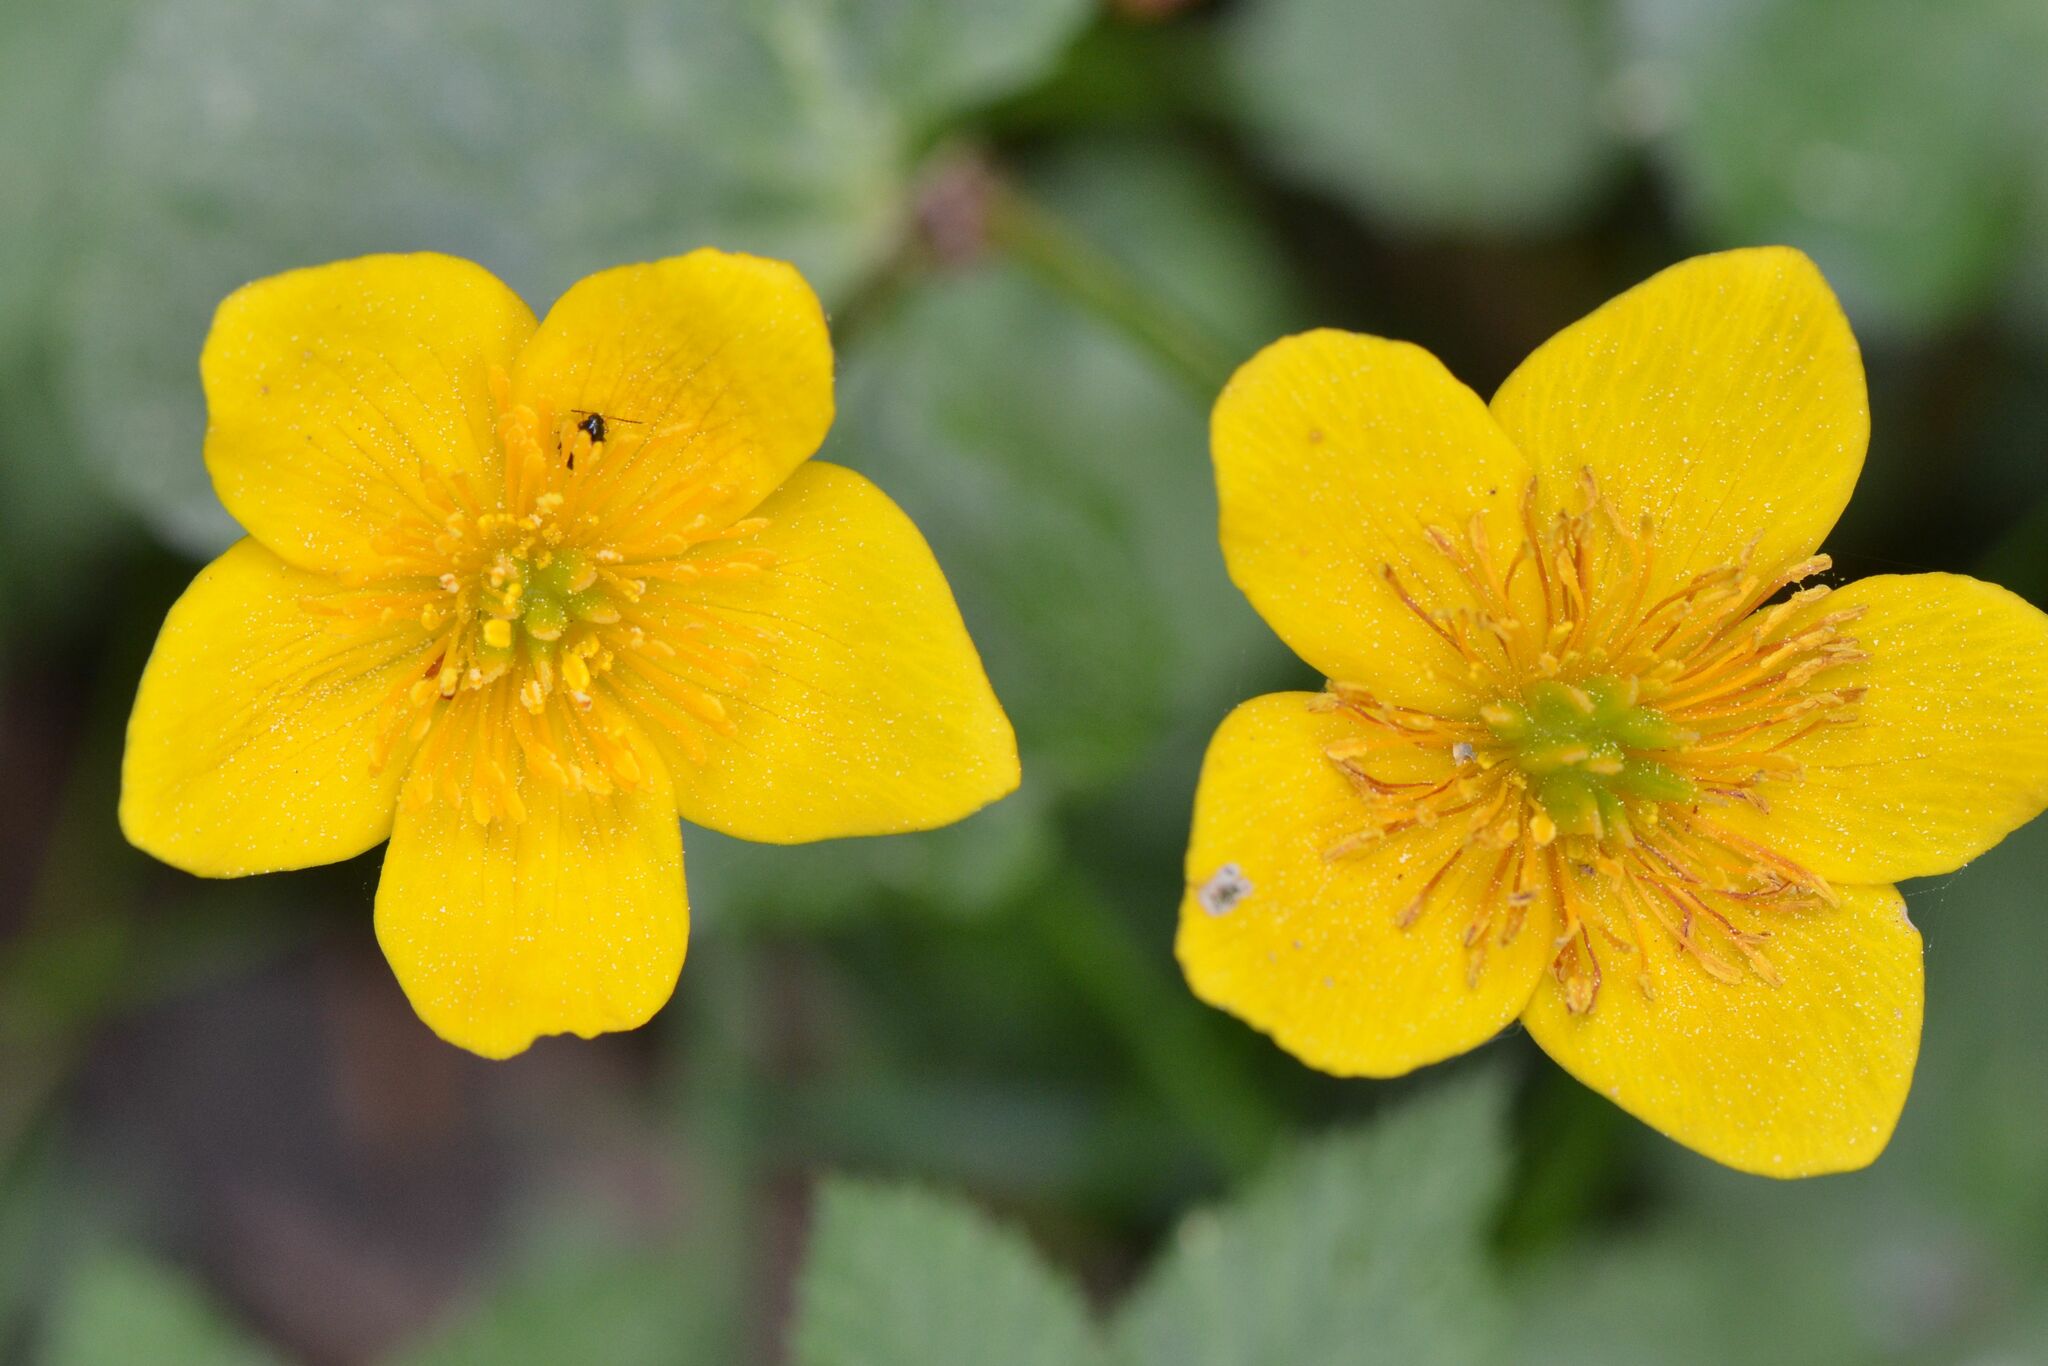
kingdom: Plantae
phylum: Tracheophyta
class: Magnoliopsida
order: Ranunculales
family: Ranunculaceae
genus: Caltha
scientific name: Caltha palustris
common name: Marsh marigold
